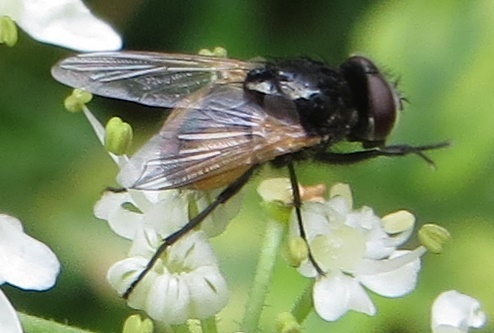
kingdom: Animalia
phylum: Arthropoda
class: Insecta
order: Diptera
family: Muscidae
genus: Musca
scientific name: Musca osiris
